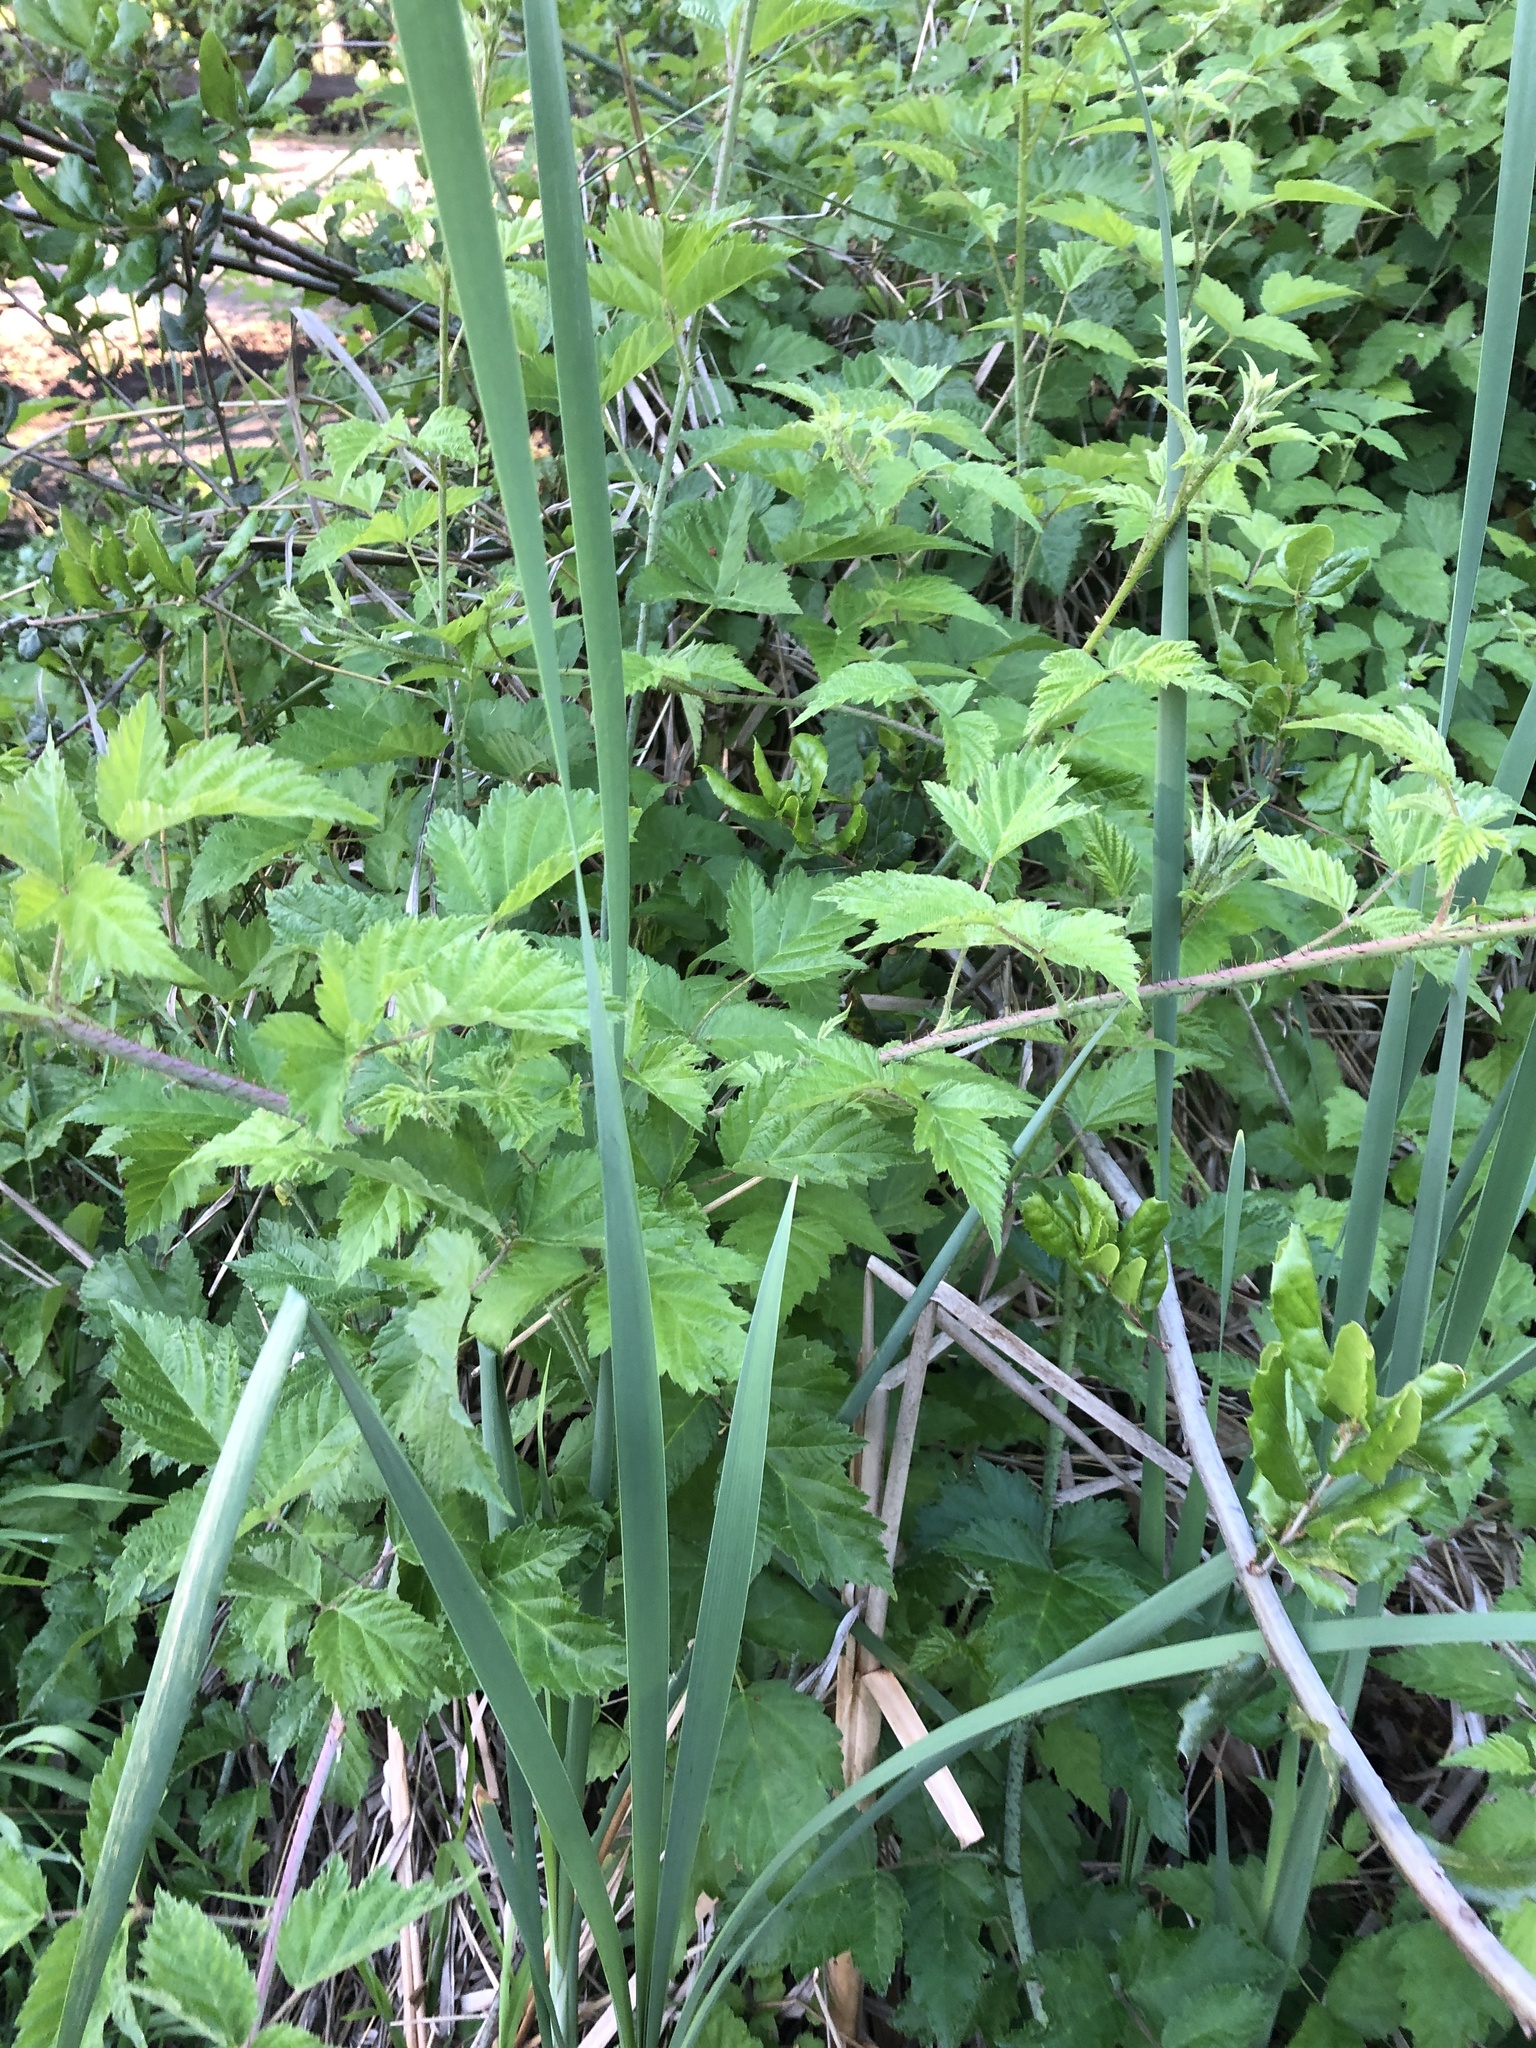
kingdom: Plantae
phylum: Tracheophyta
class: Magnoliopsida
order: Rosales
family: Rosaceae
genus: Rubus
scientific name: Rubus ursinus
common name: Pacific blackberry
